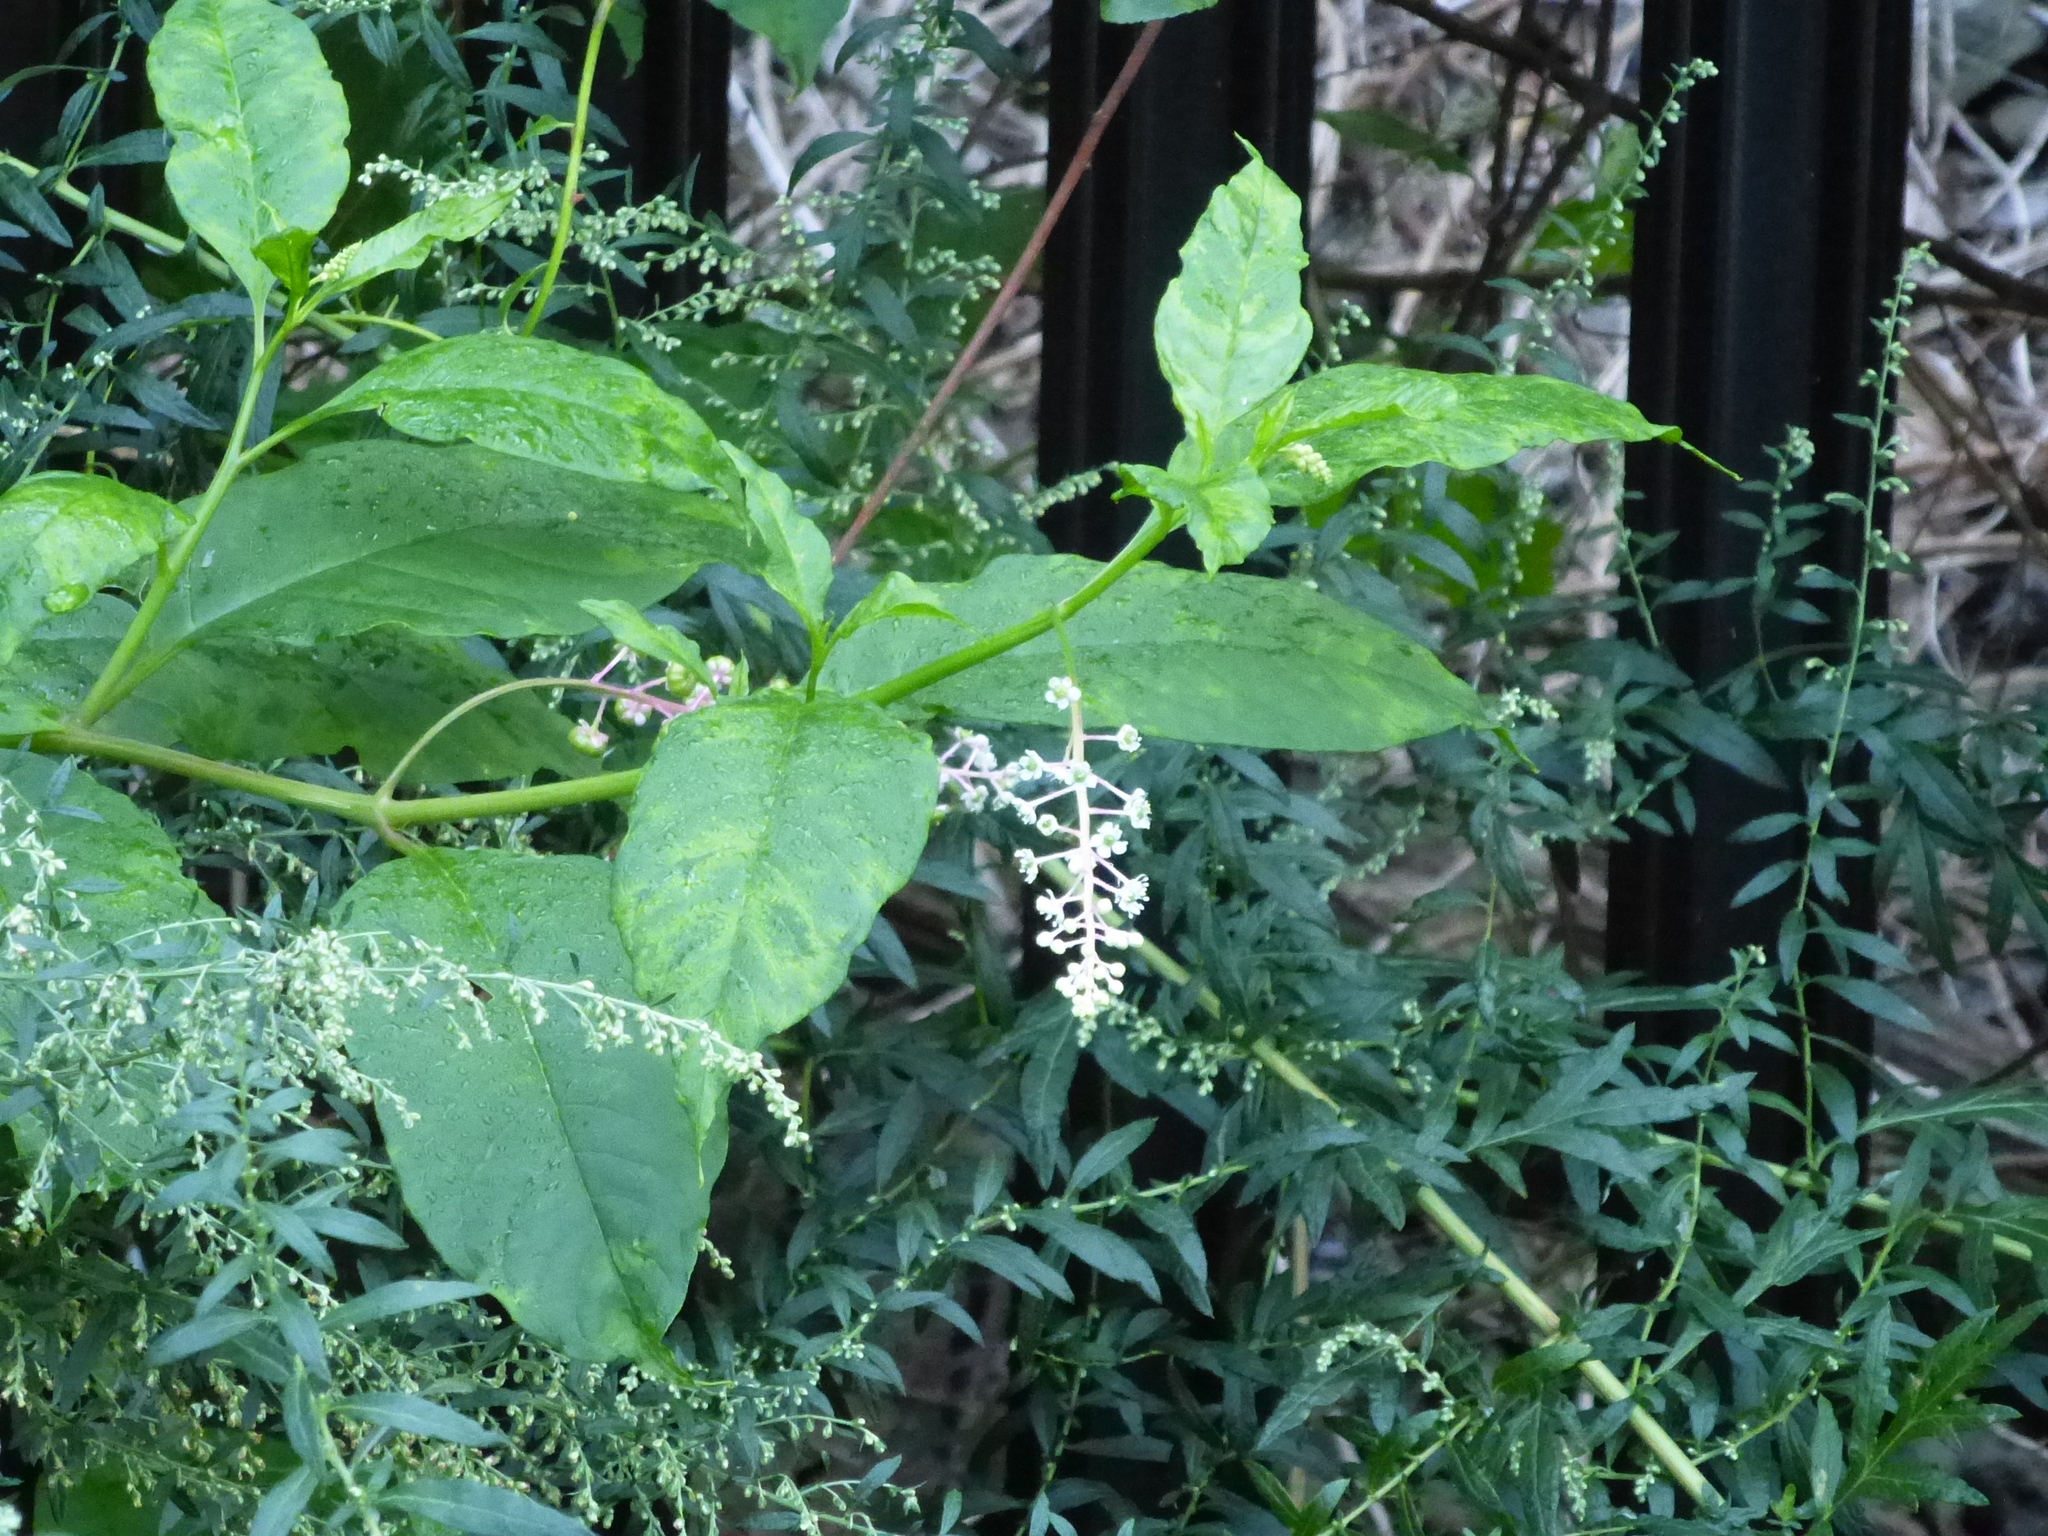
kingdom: Plantae
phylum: Tracheophyta
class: Magnoliopsida
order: Caryophyllales
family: Phytolaccaceae
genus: Phytolacca
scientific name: Phytolacca americana
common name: American pokeweed
